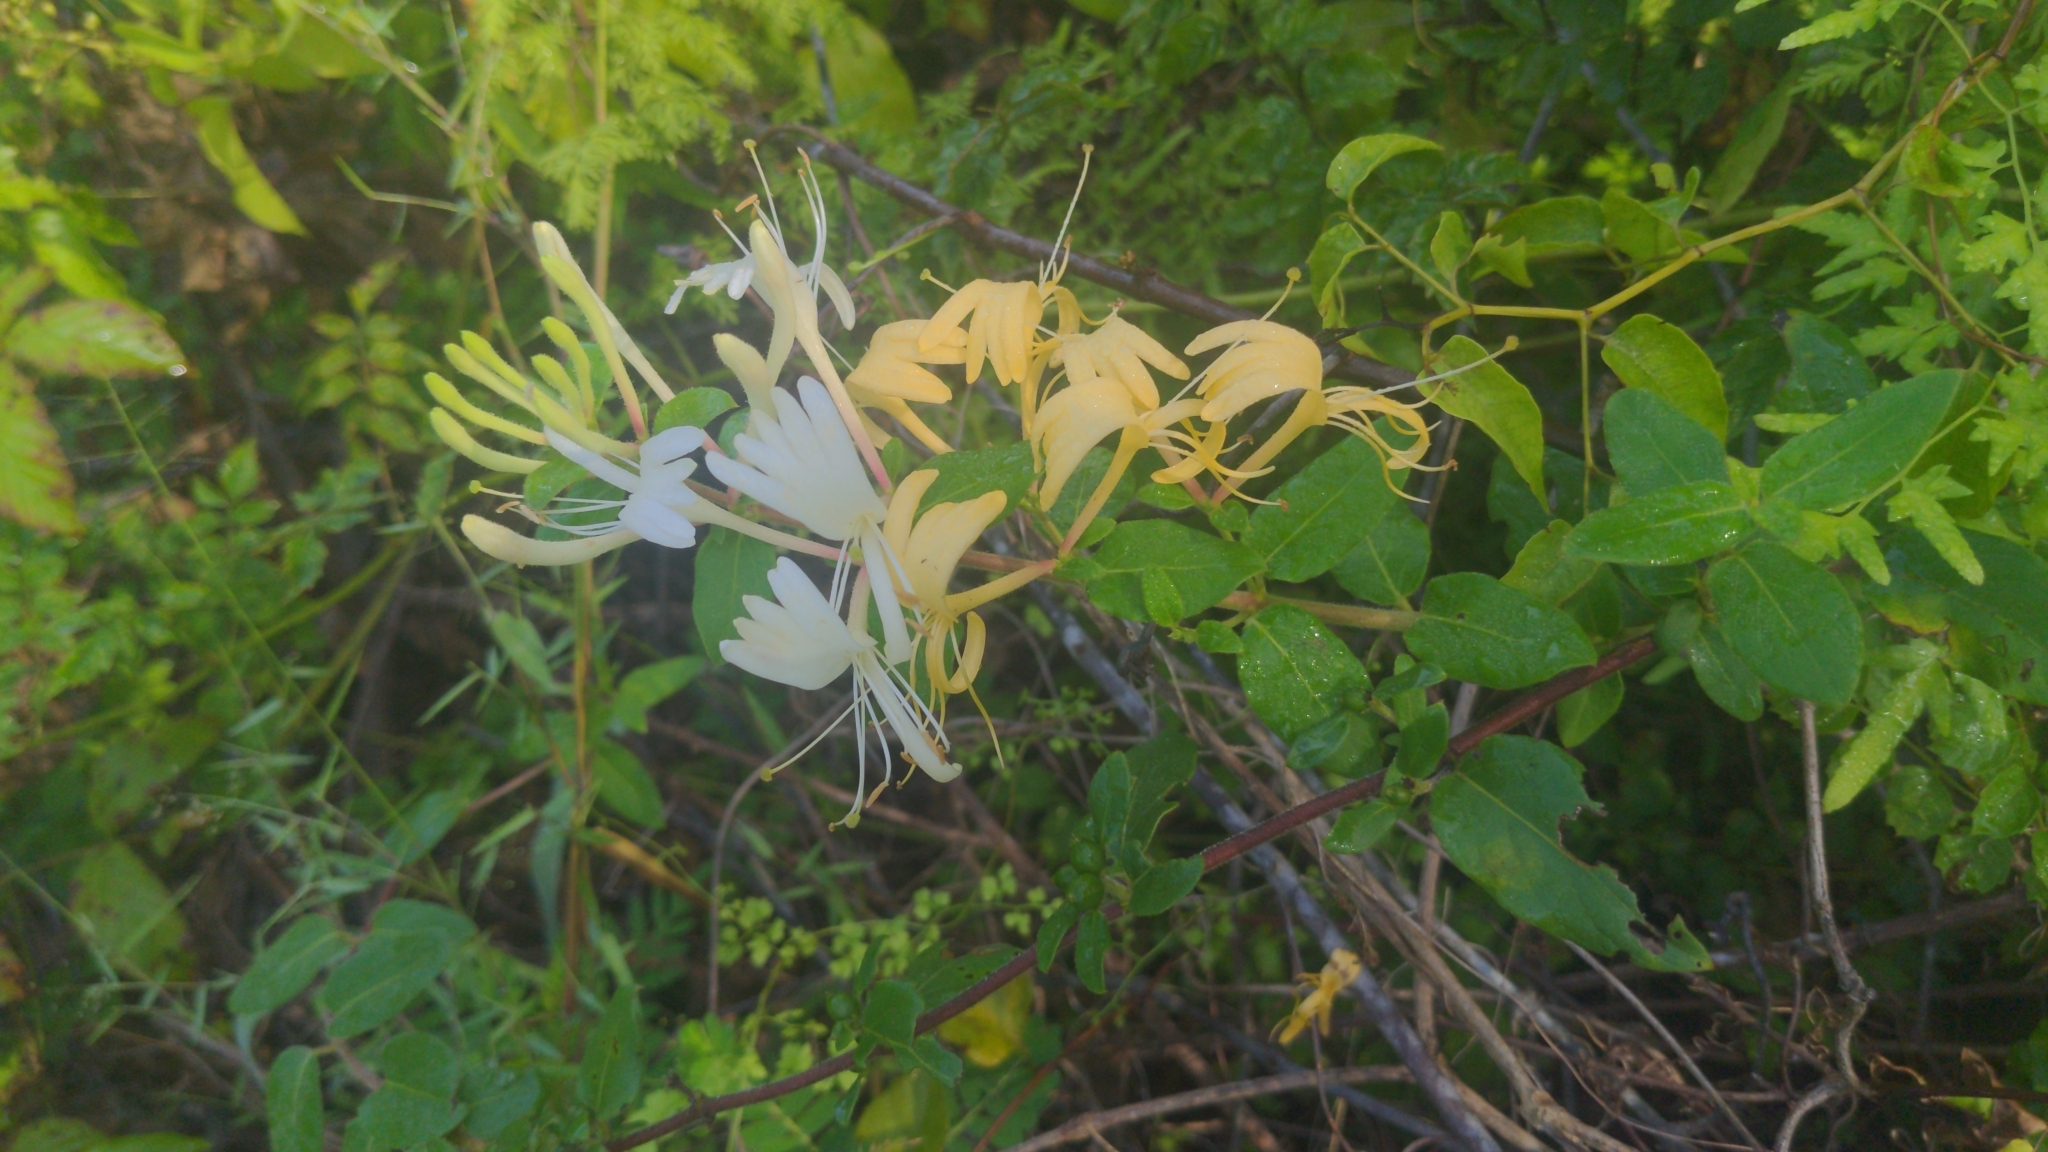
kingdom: Plantae
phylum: Tracheophyta
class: Magnoliopsida
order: Dipsacales
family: Caprifoliaceae
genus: Lonicera
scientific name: Lonicera japonica
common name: Japanese honeysuckle
